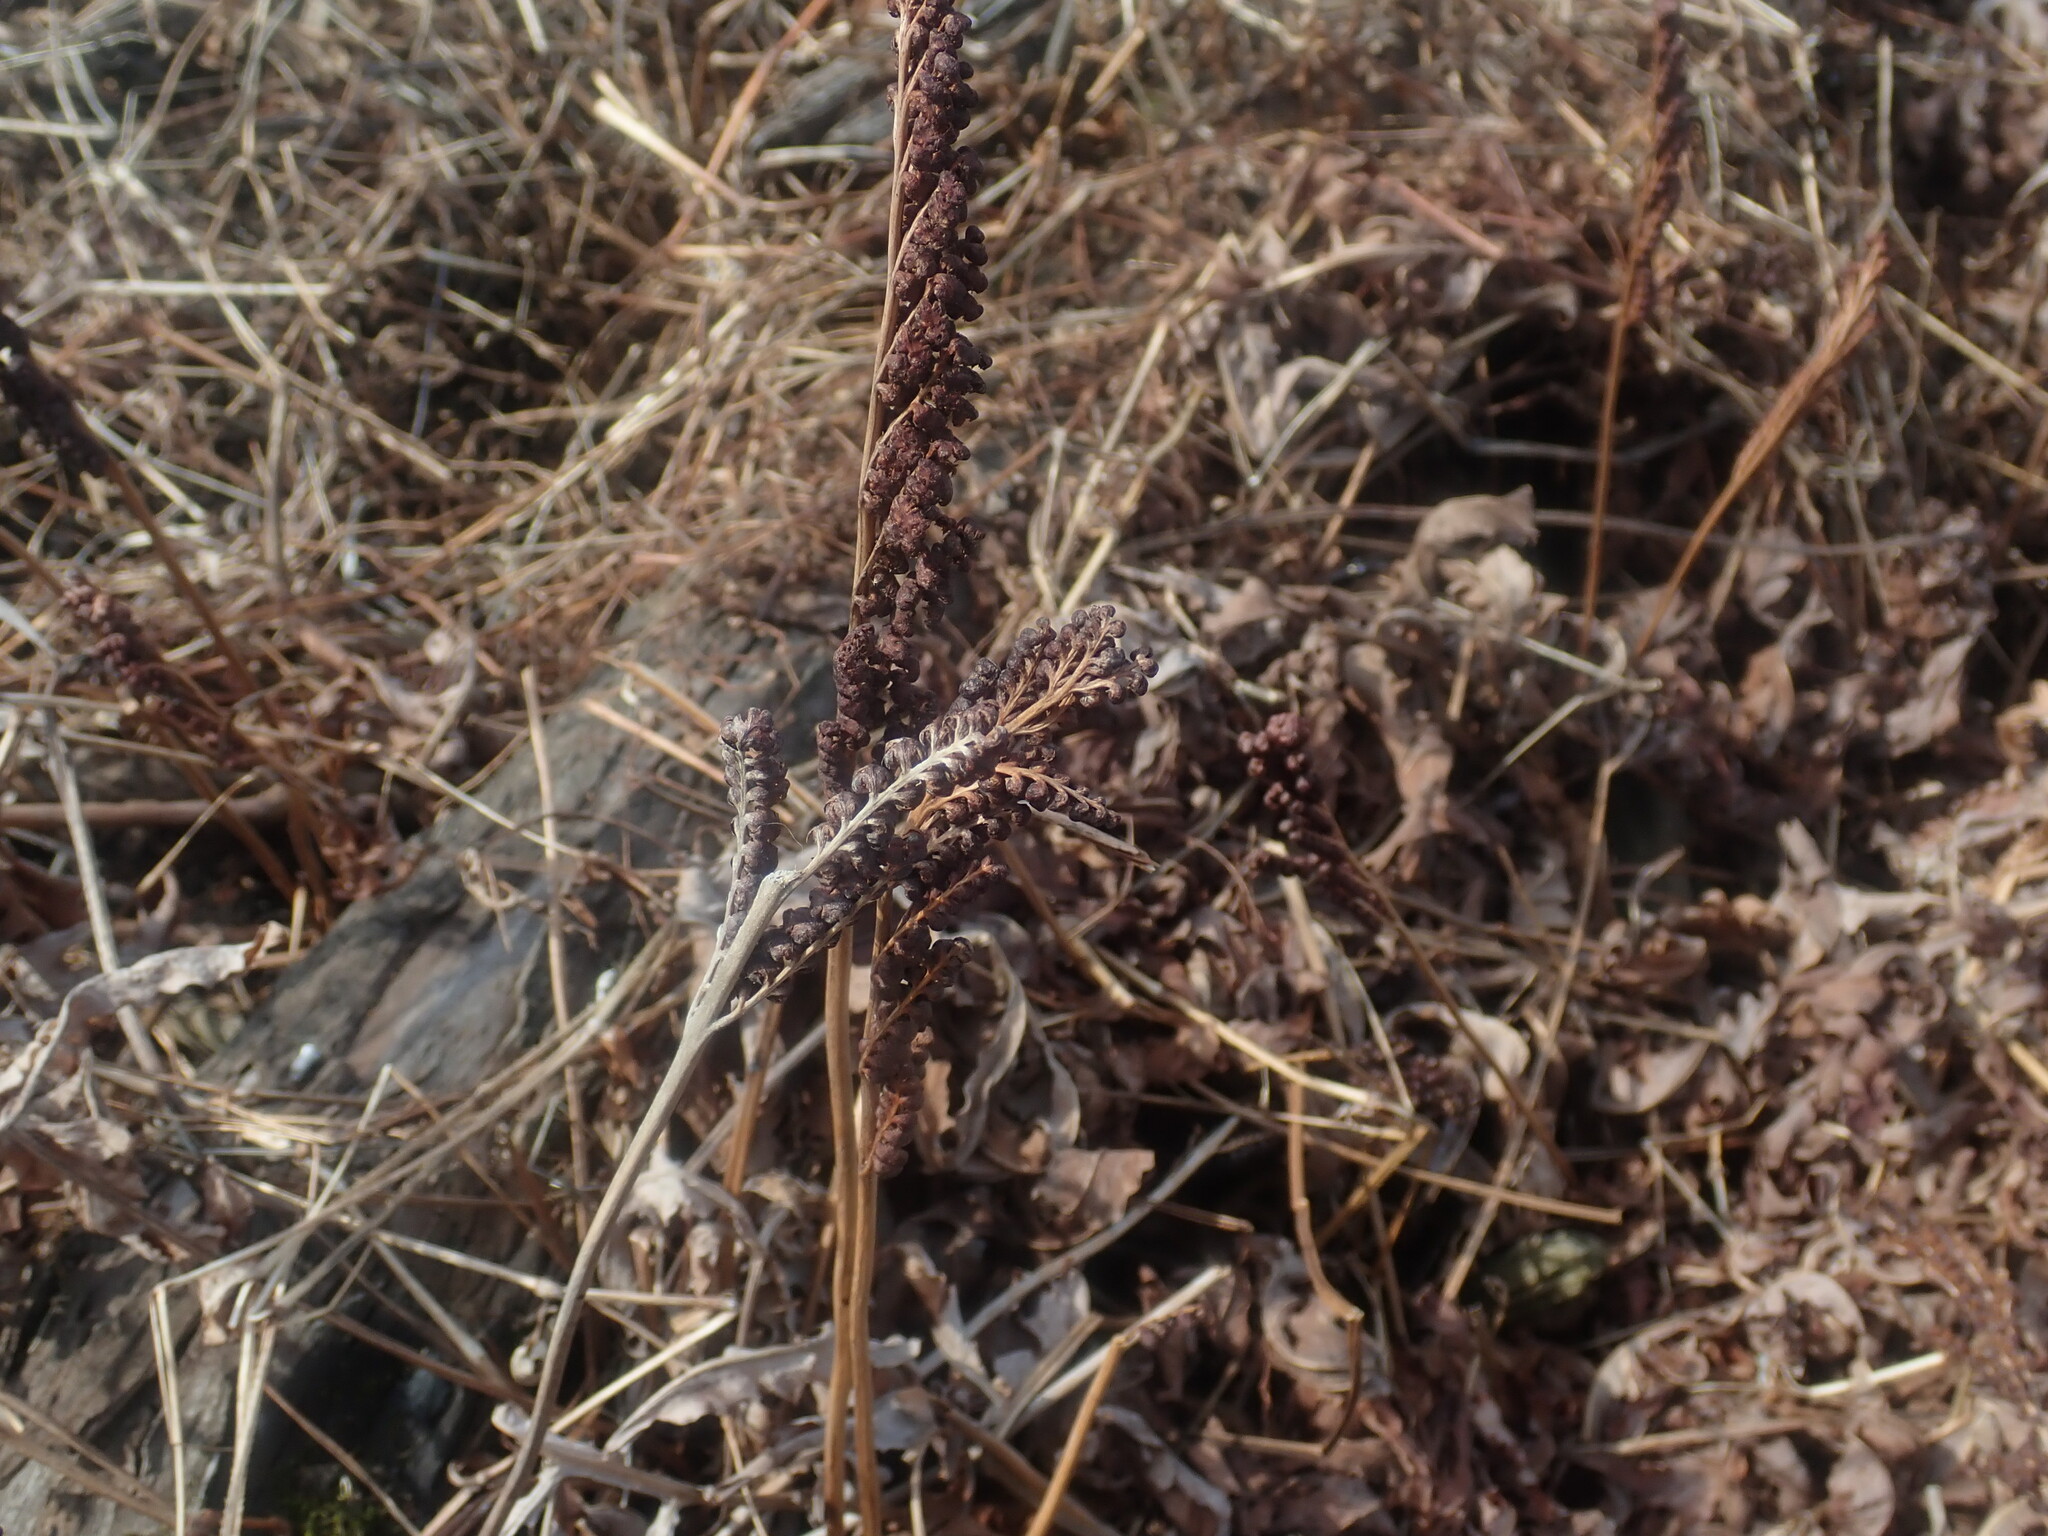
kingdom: Plantae
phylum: Tracheophyta
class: Polypodiopsida
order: Polypodiales
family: Onocleaceae
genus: Onoclea
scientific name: Onoclea sensibilis
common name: Sensitive fern
